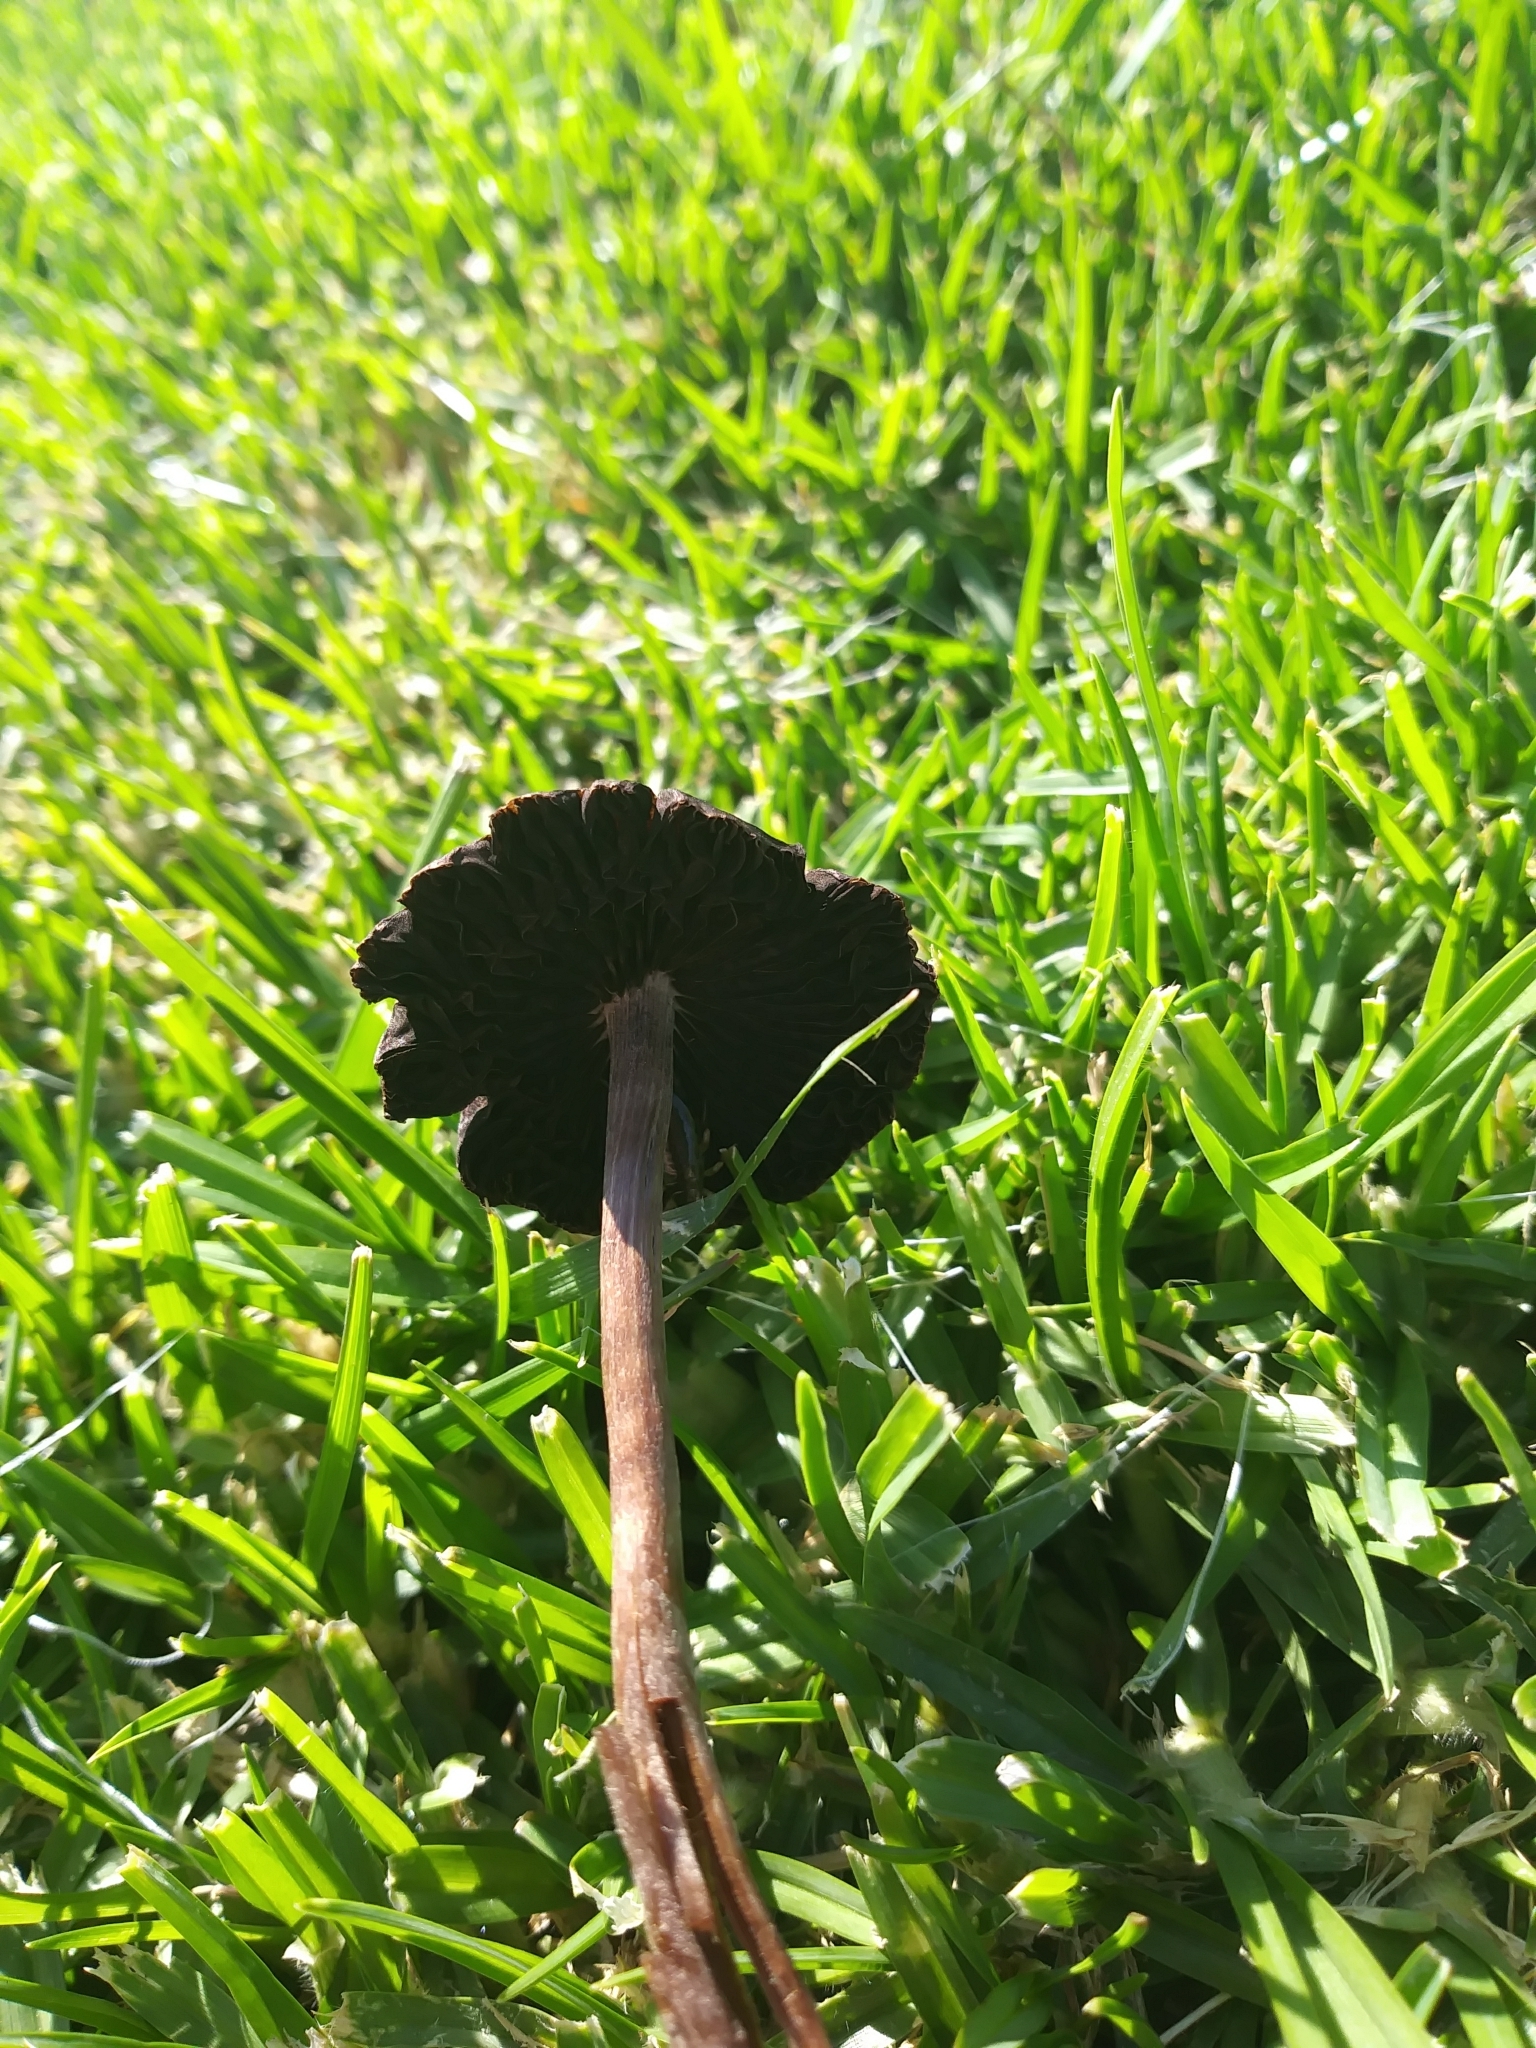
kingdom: Fungi
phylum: Basidiomycota
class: Agaricomycetes
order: Agaricales
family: Bolbitiaceae
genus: Panaeolina
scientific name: Panaeolina foenisecii
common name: Brown hay cap
